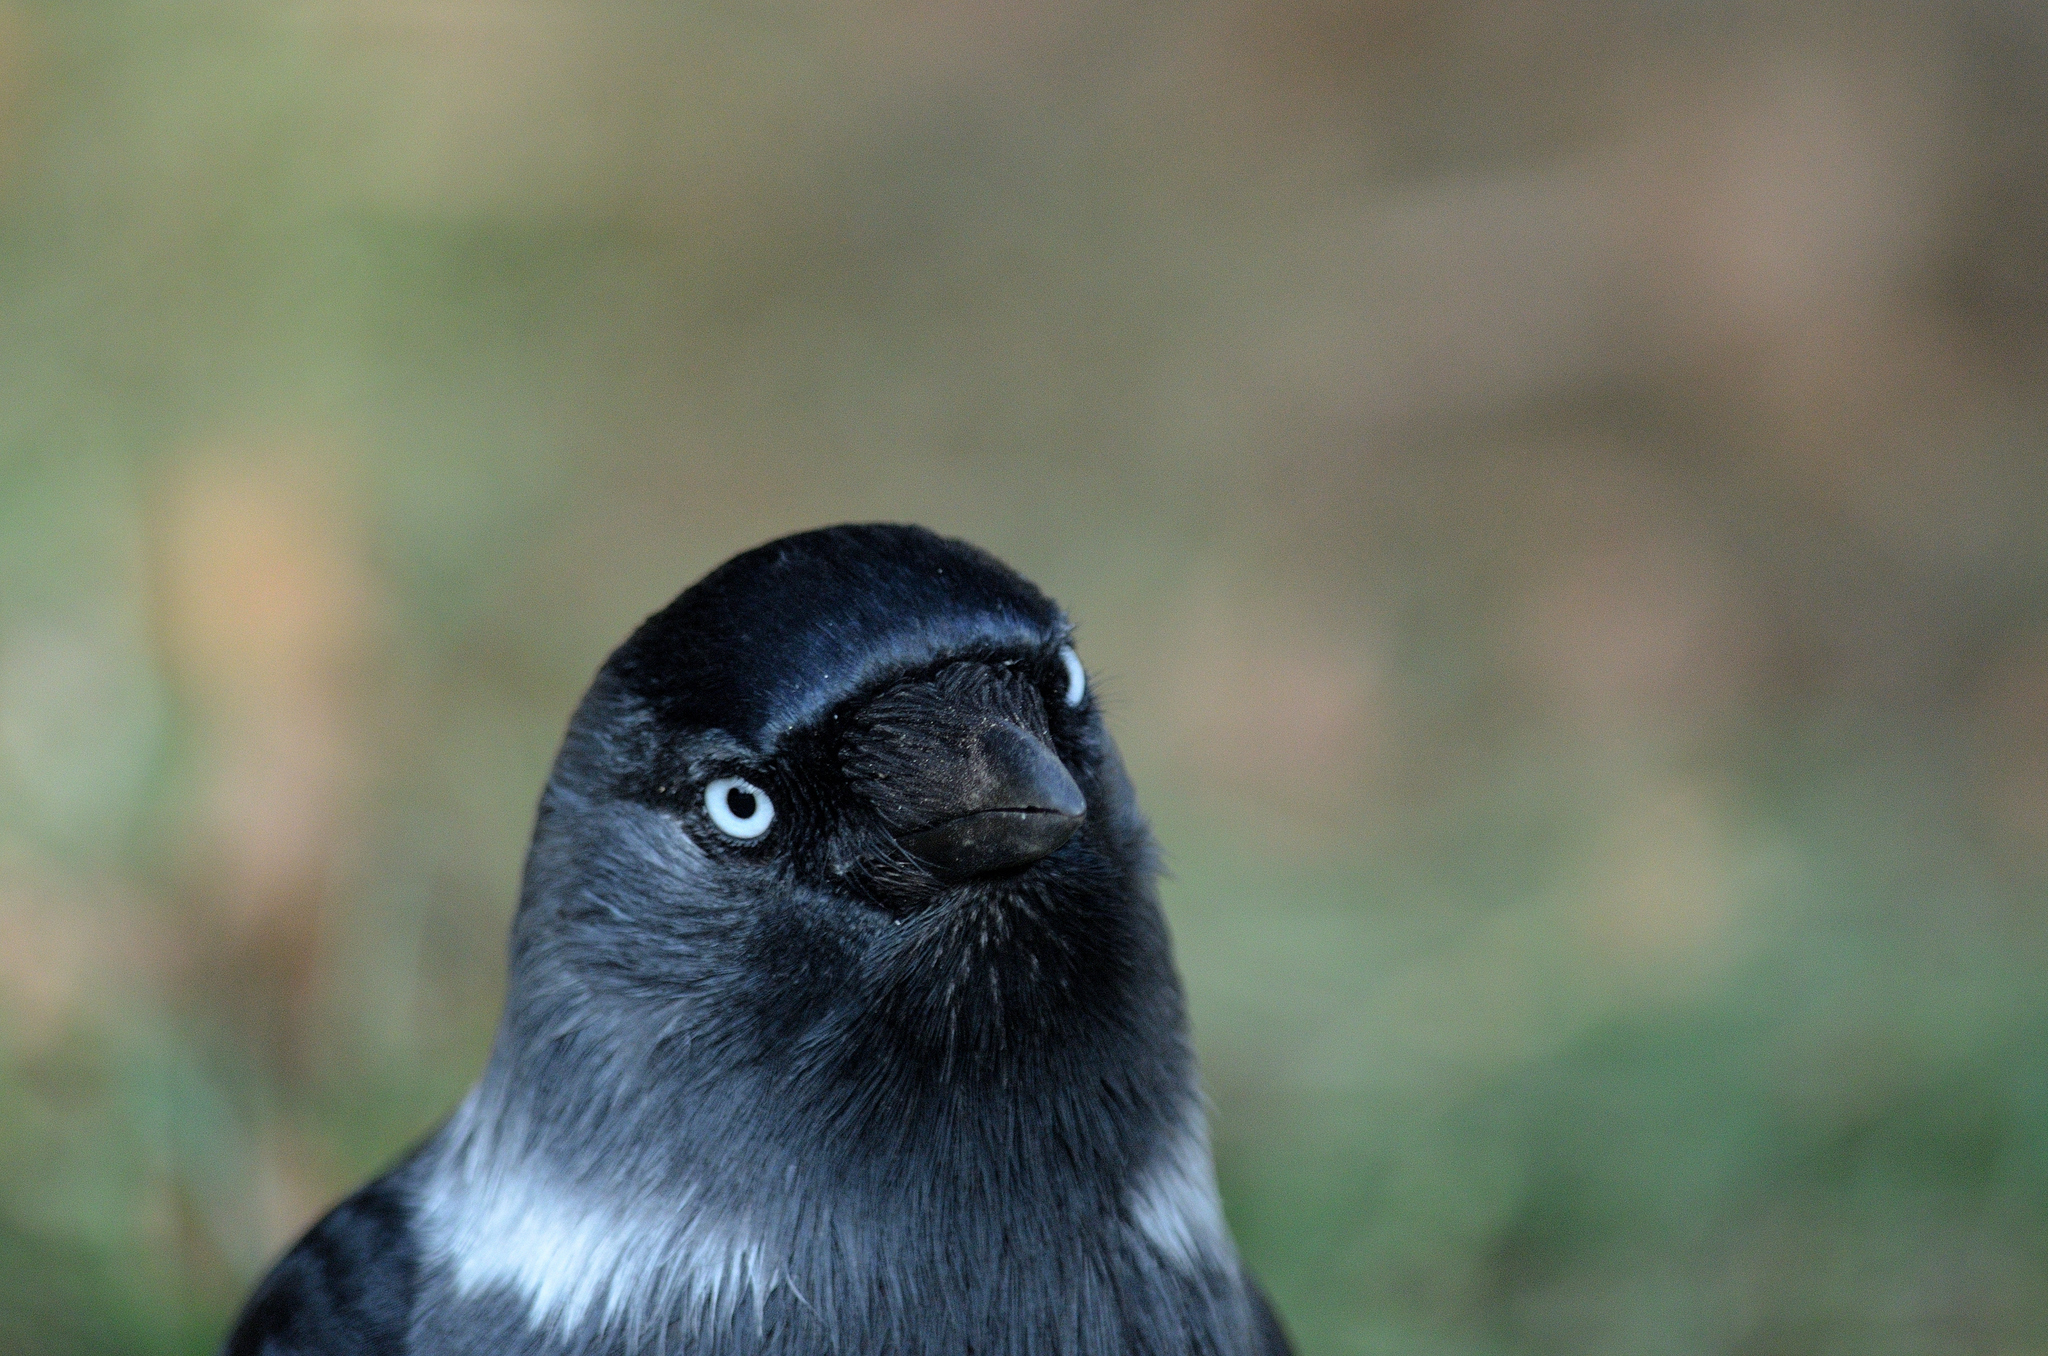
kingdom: Animalia
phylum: Chordata
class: Aves
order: Passeriformes
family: Corvidae
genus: Coloeus
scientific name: Coloeus monedula
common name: Western jackdaw
